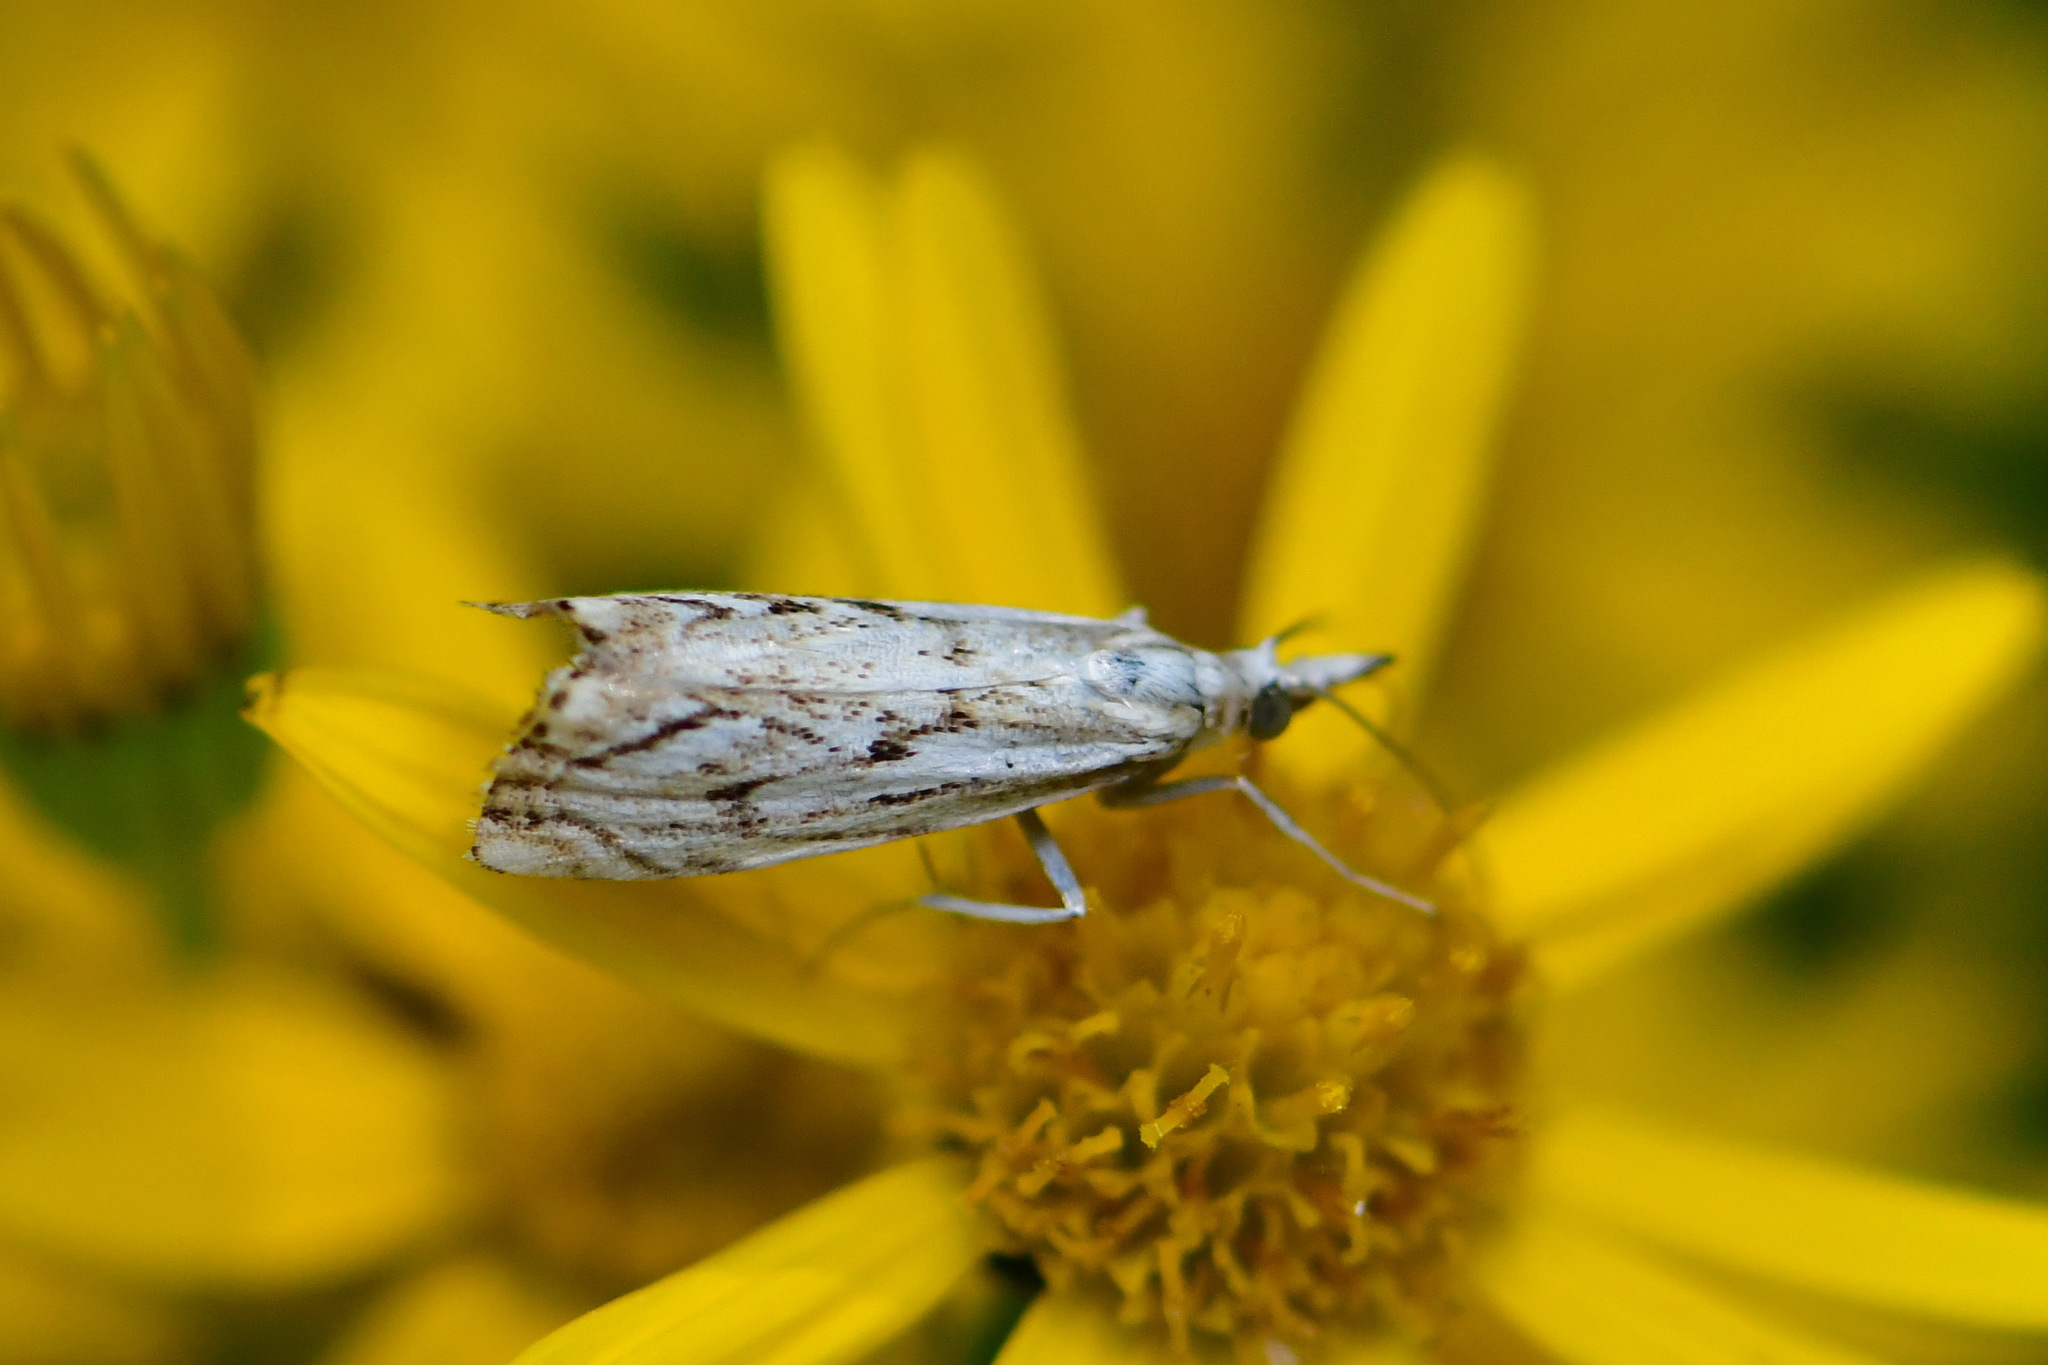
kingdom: Animalia
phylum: Arthropoda
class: Insecta
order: Lepidoptera
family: Crambidae
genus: Catoptria
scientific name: Catoptria falsella
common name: Chequered grass-veneer
